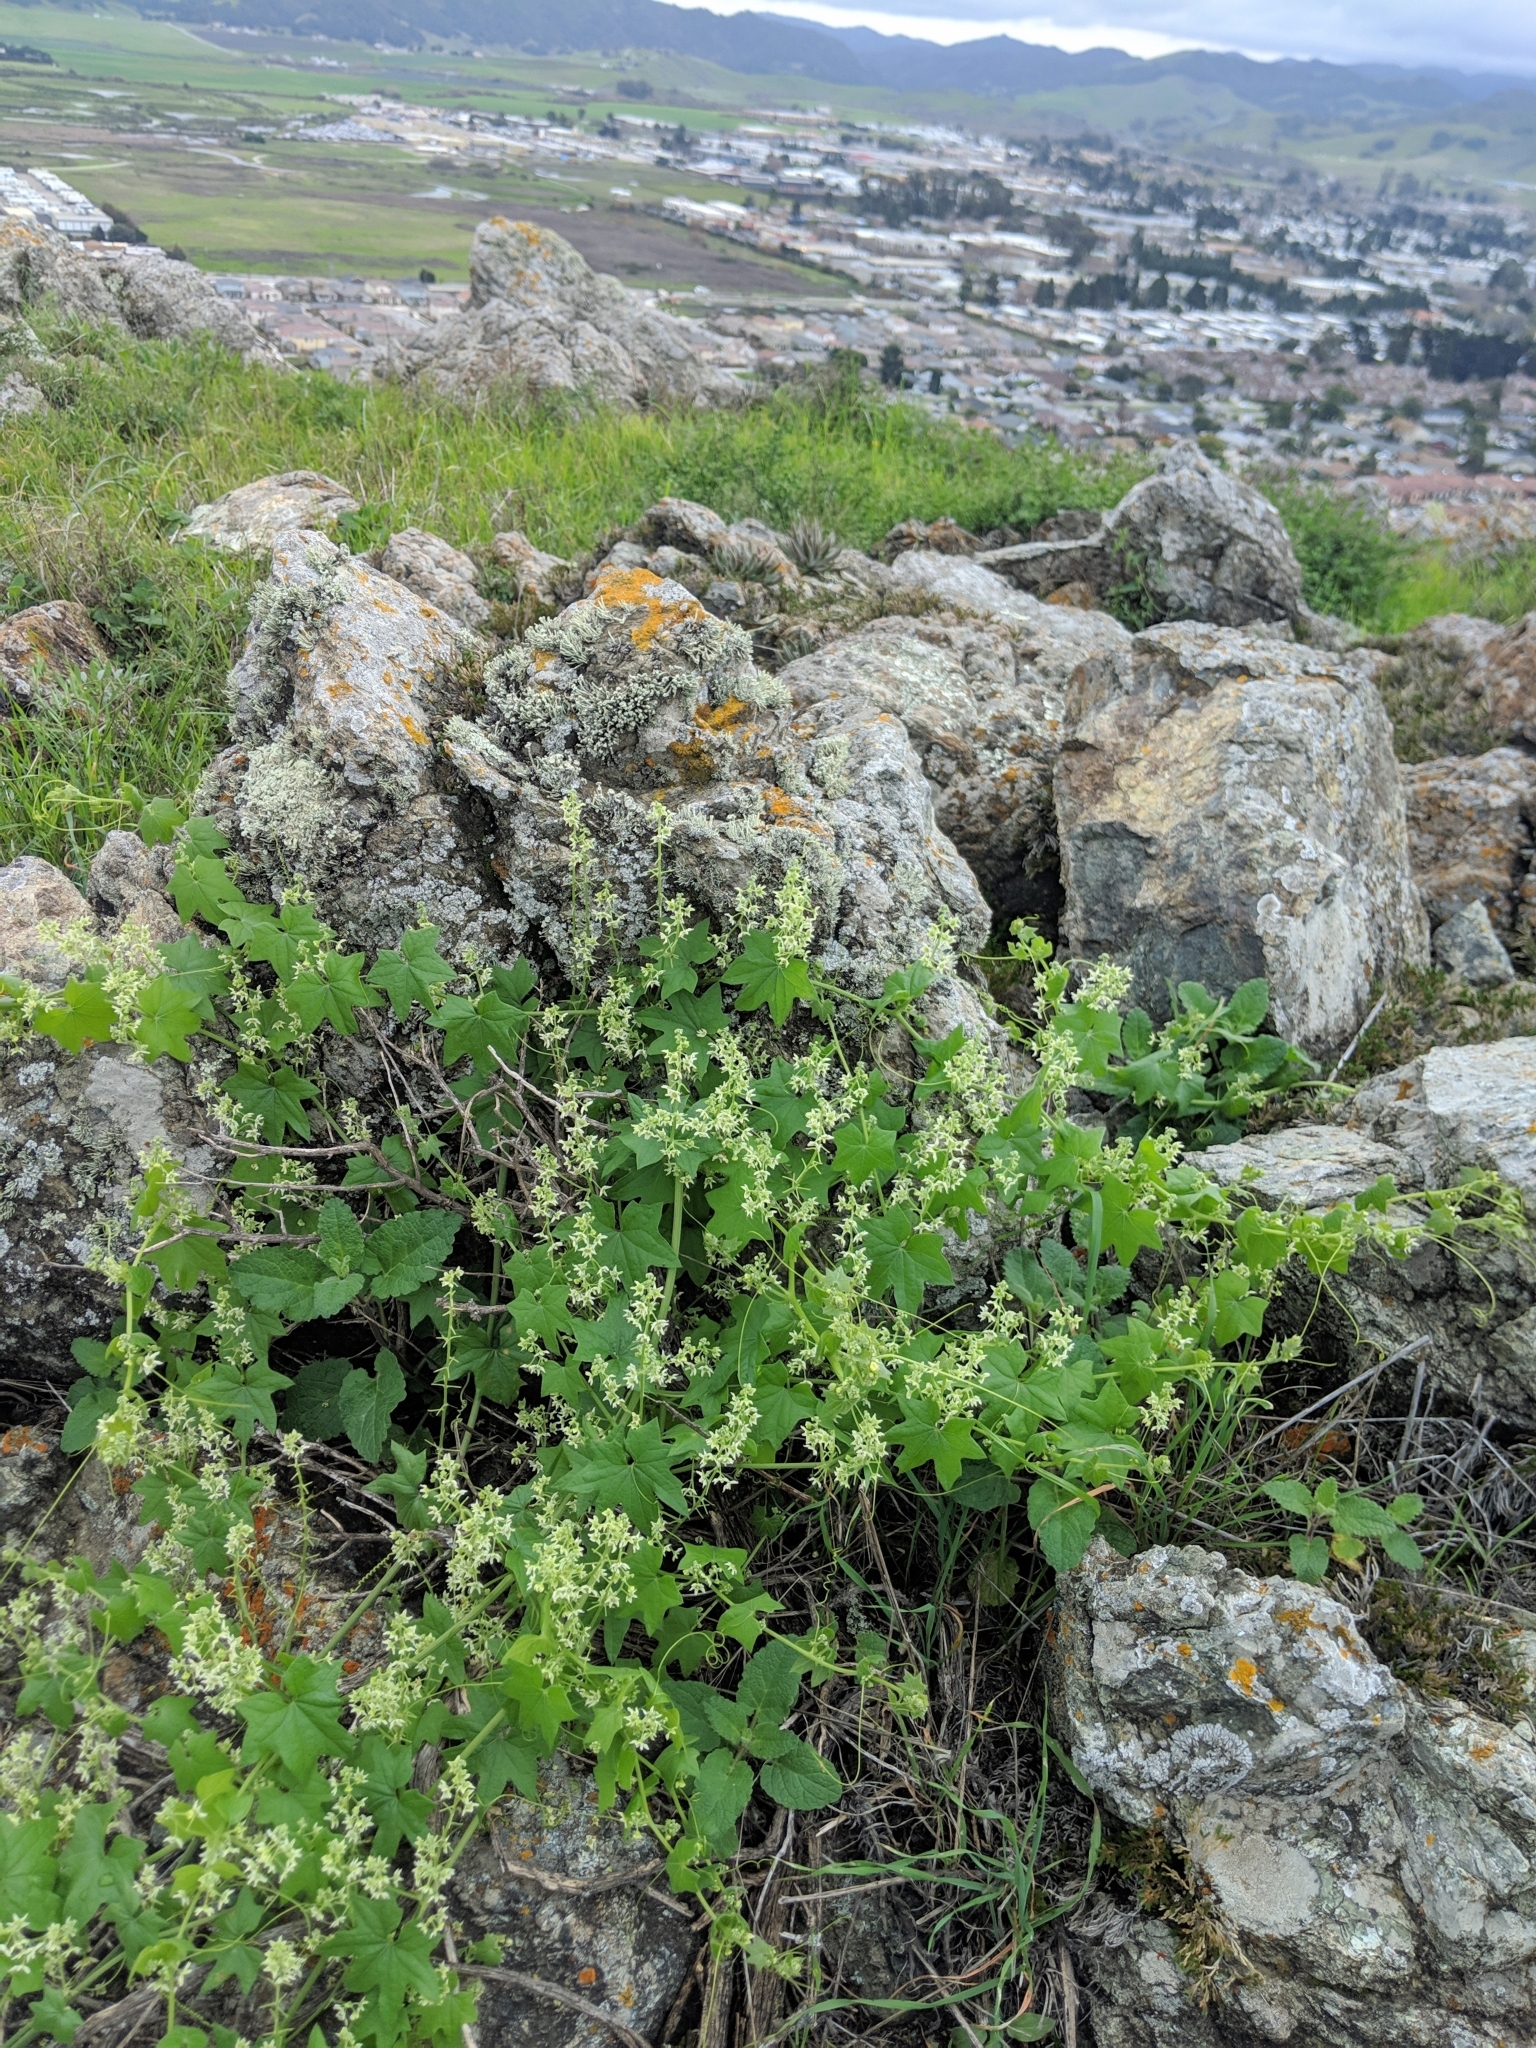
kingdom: Plantae
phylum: Tracheophyta
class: Magnoliopsida
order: Cucurbitales
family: Cucurbitaceae
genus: Marah
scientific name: Marah fabacea
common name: California manroot
